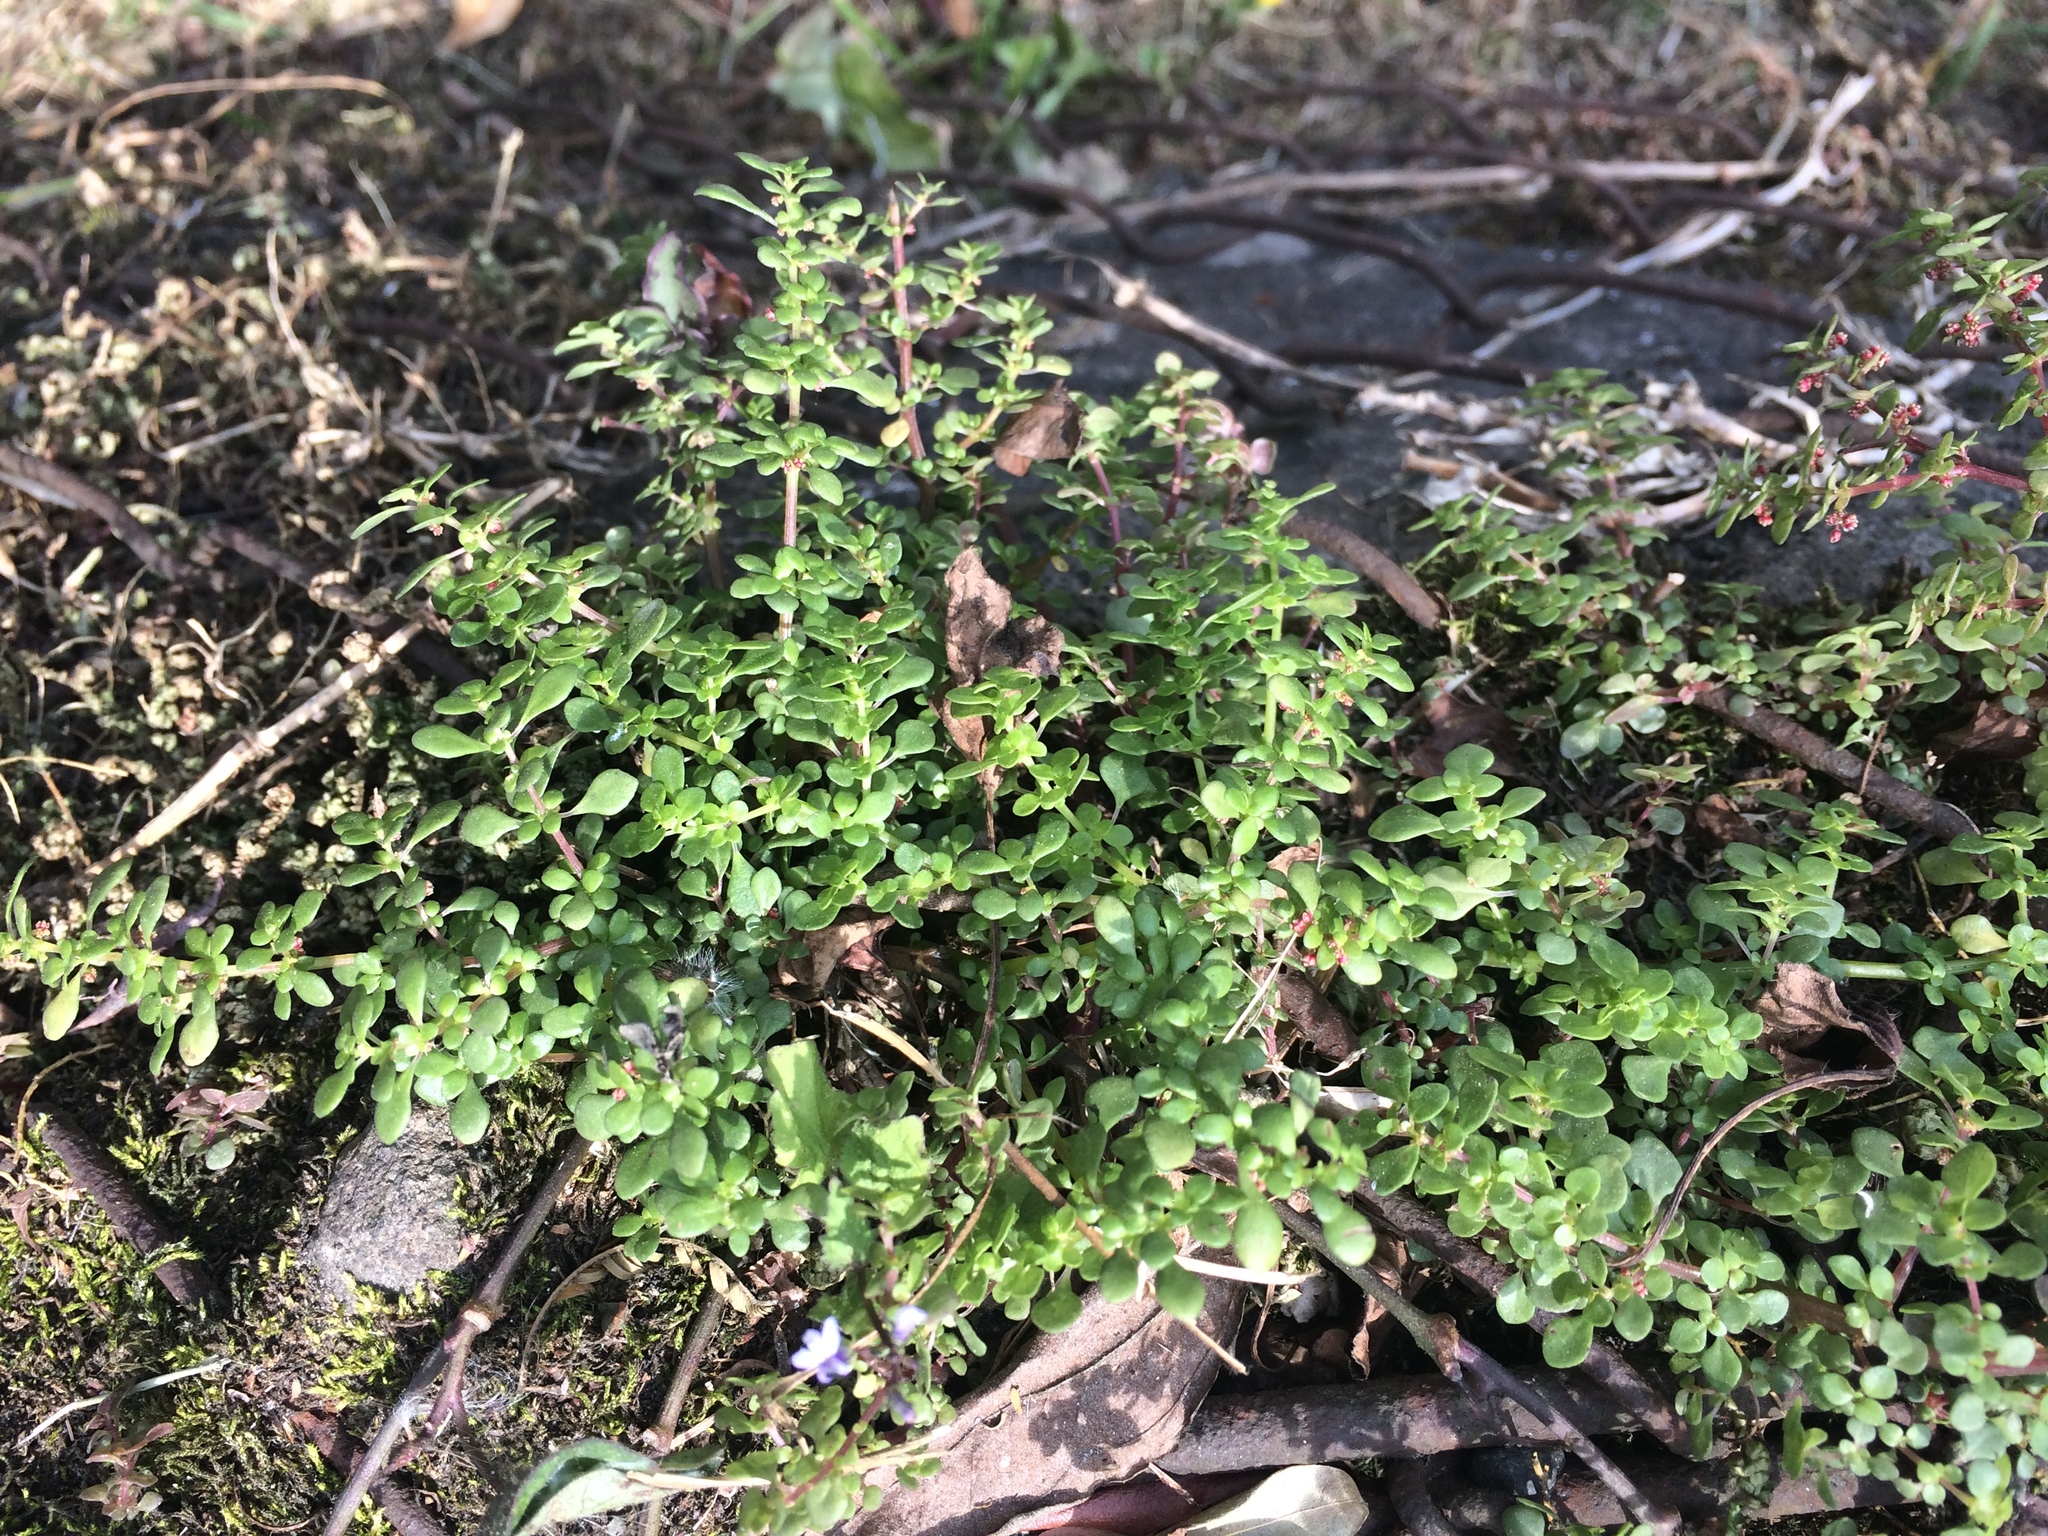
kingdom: Plantae
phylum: Tracheophyta
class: Magnoliopsida
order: Rosales
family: Urticaceae
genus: Pilea
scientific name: Pilea microphylla
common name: Artillery-plant
